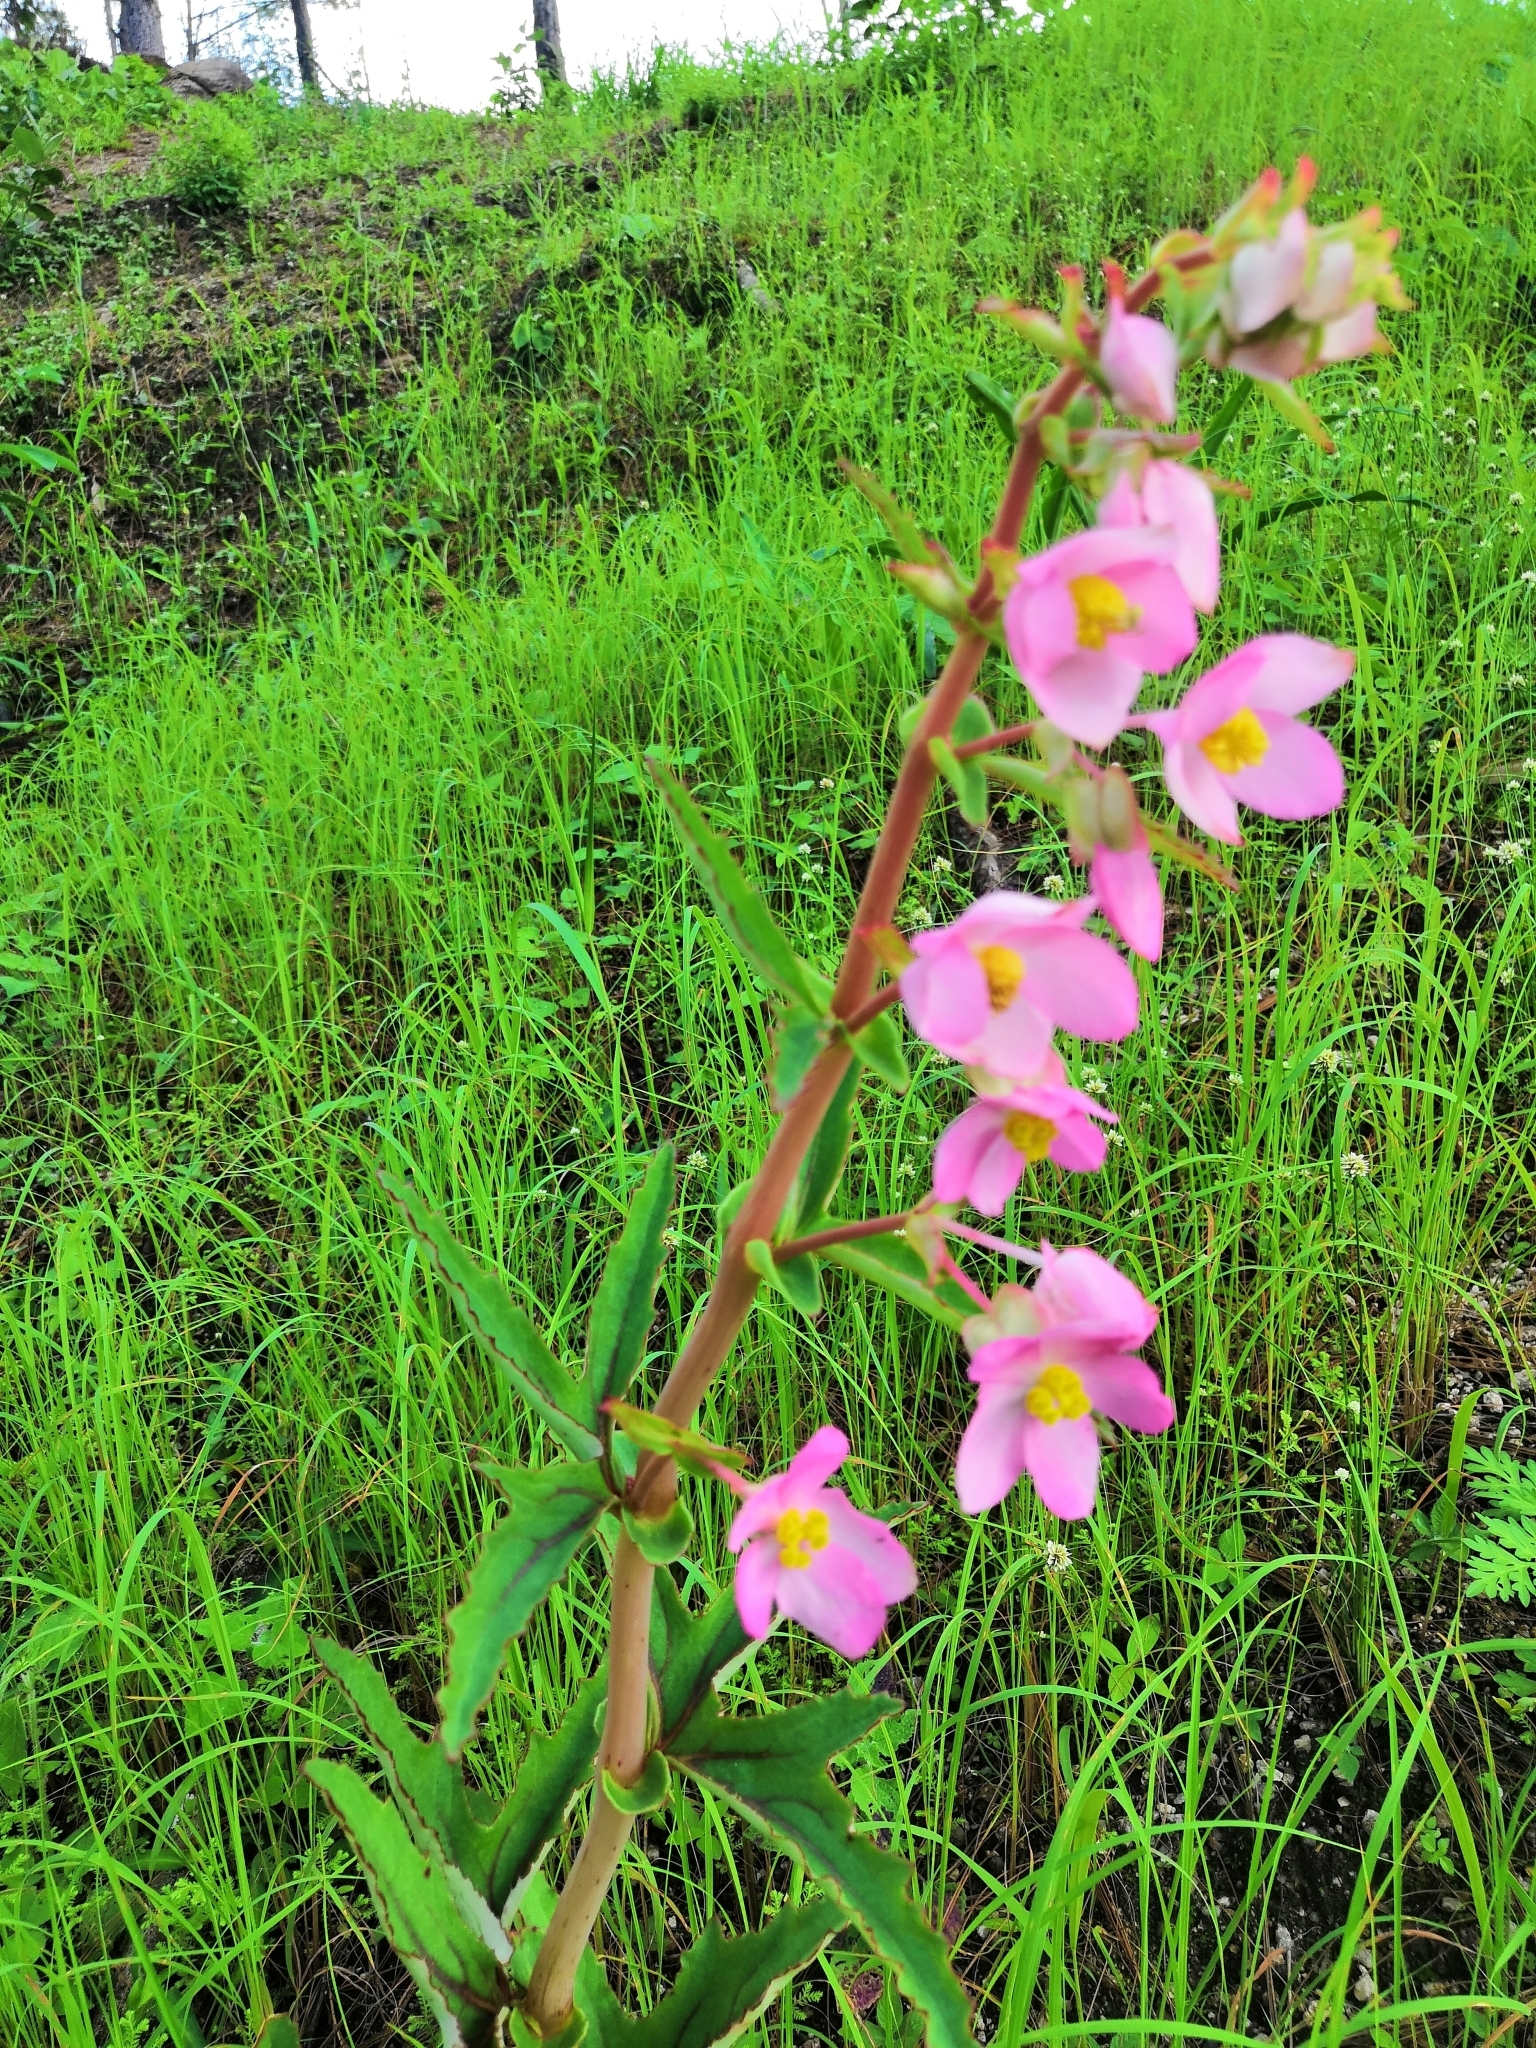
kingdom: Plantae
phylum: Tracheophyta
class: Magnoliopsida
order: Cucurbitales
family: Begoniaceae
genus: Begonia
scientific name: Begonia angustiloba
